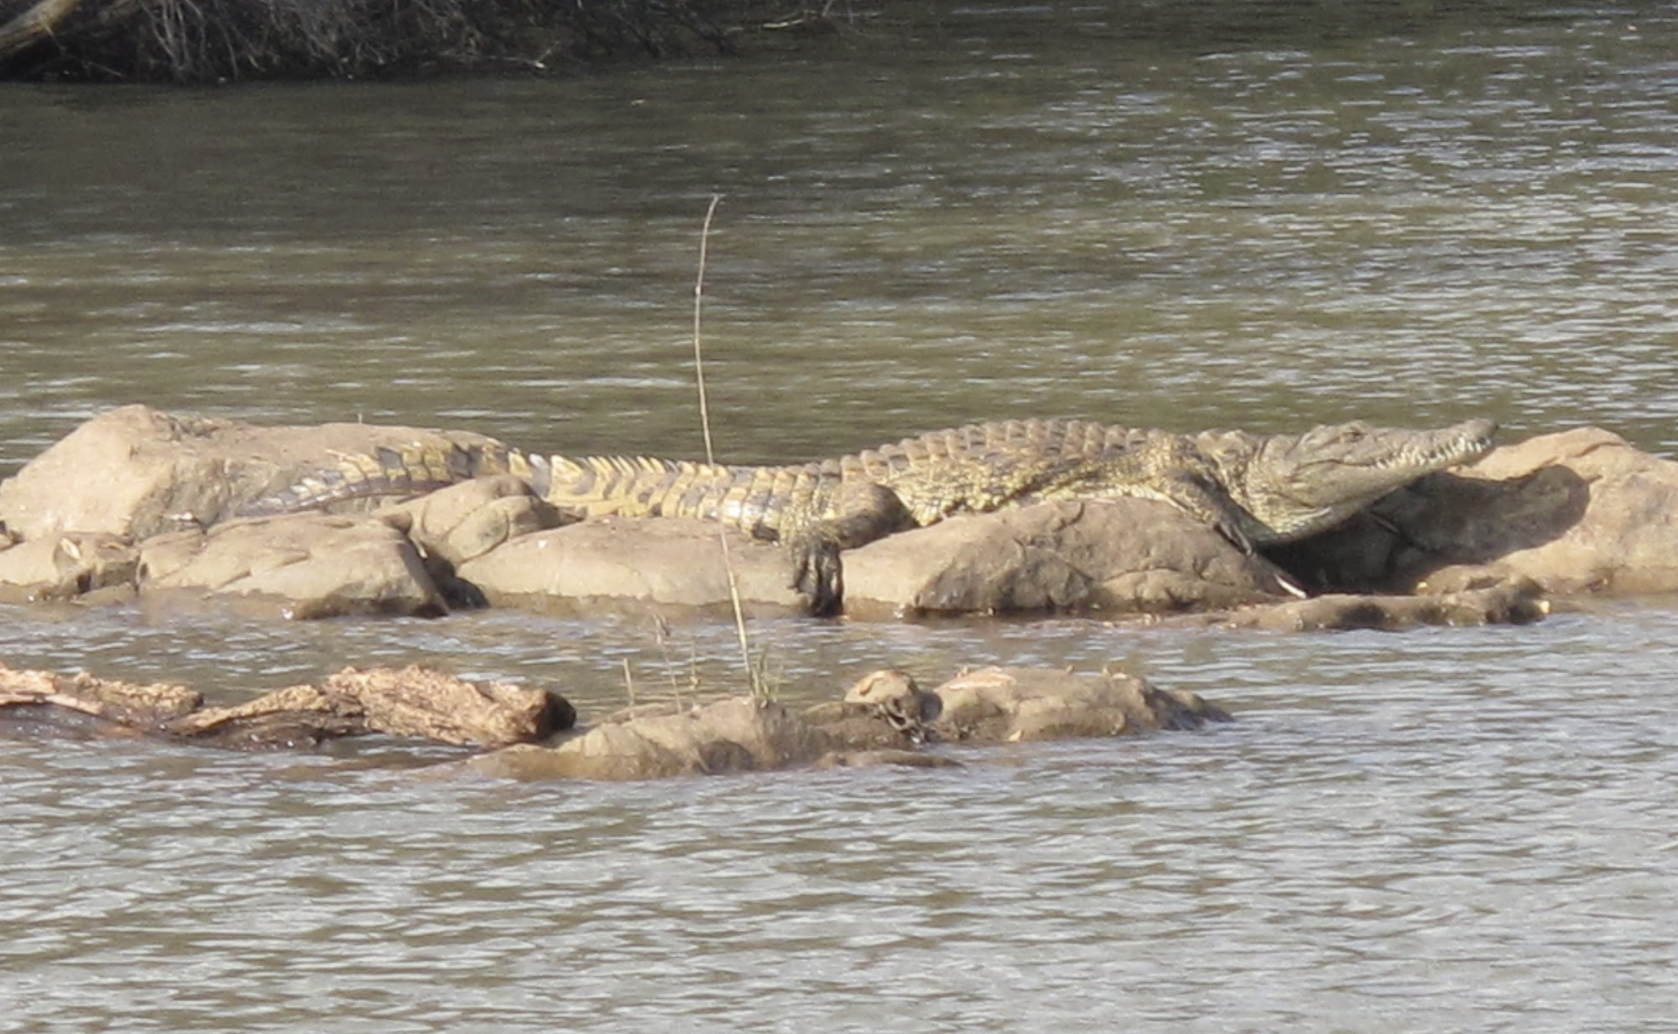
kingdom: Animalia
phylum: Chordata
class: Crocodylia
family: Crocodylidae
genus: Crocodylus
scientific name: Crocodylus niloticus
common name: Nile crocodile
